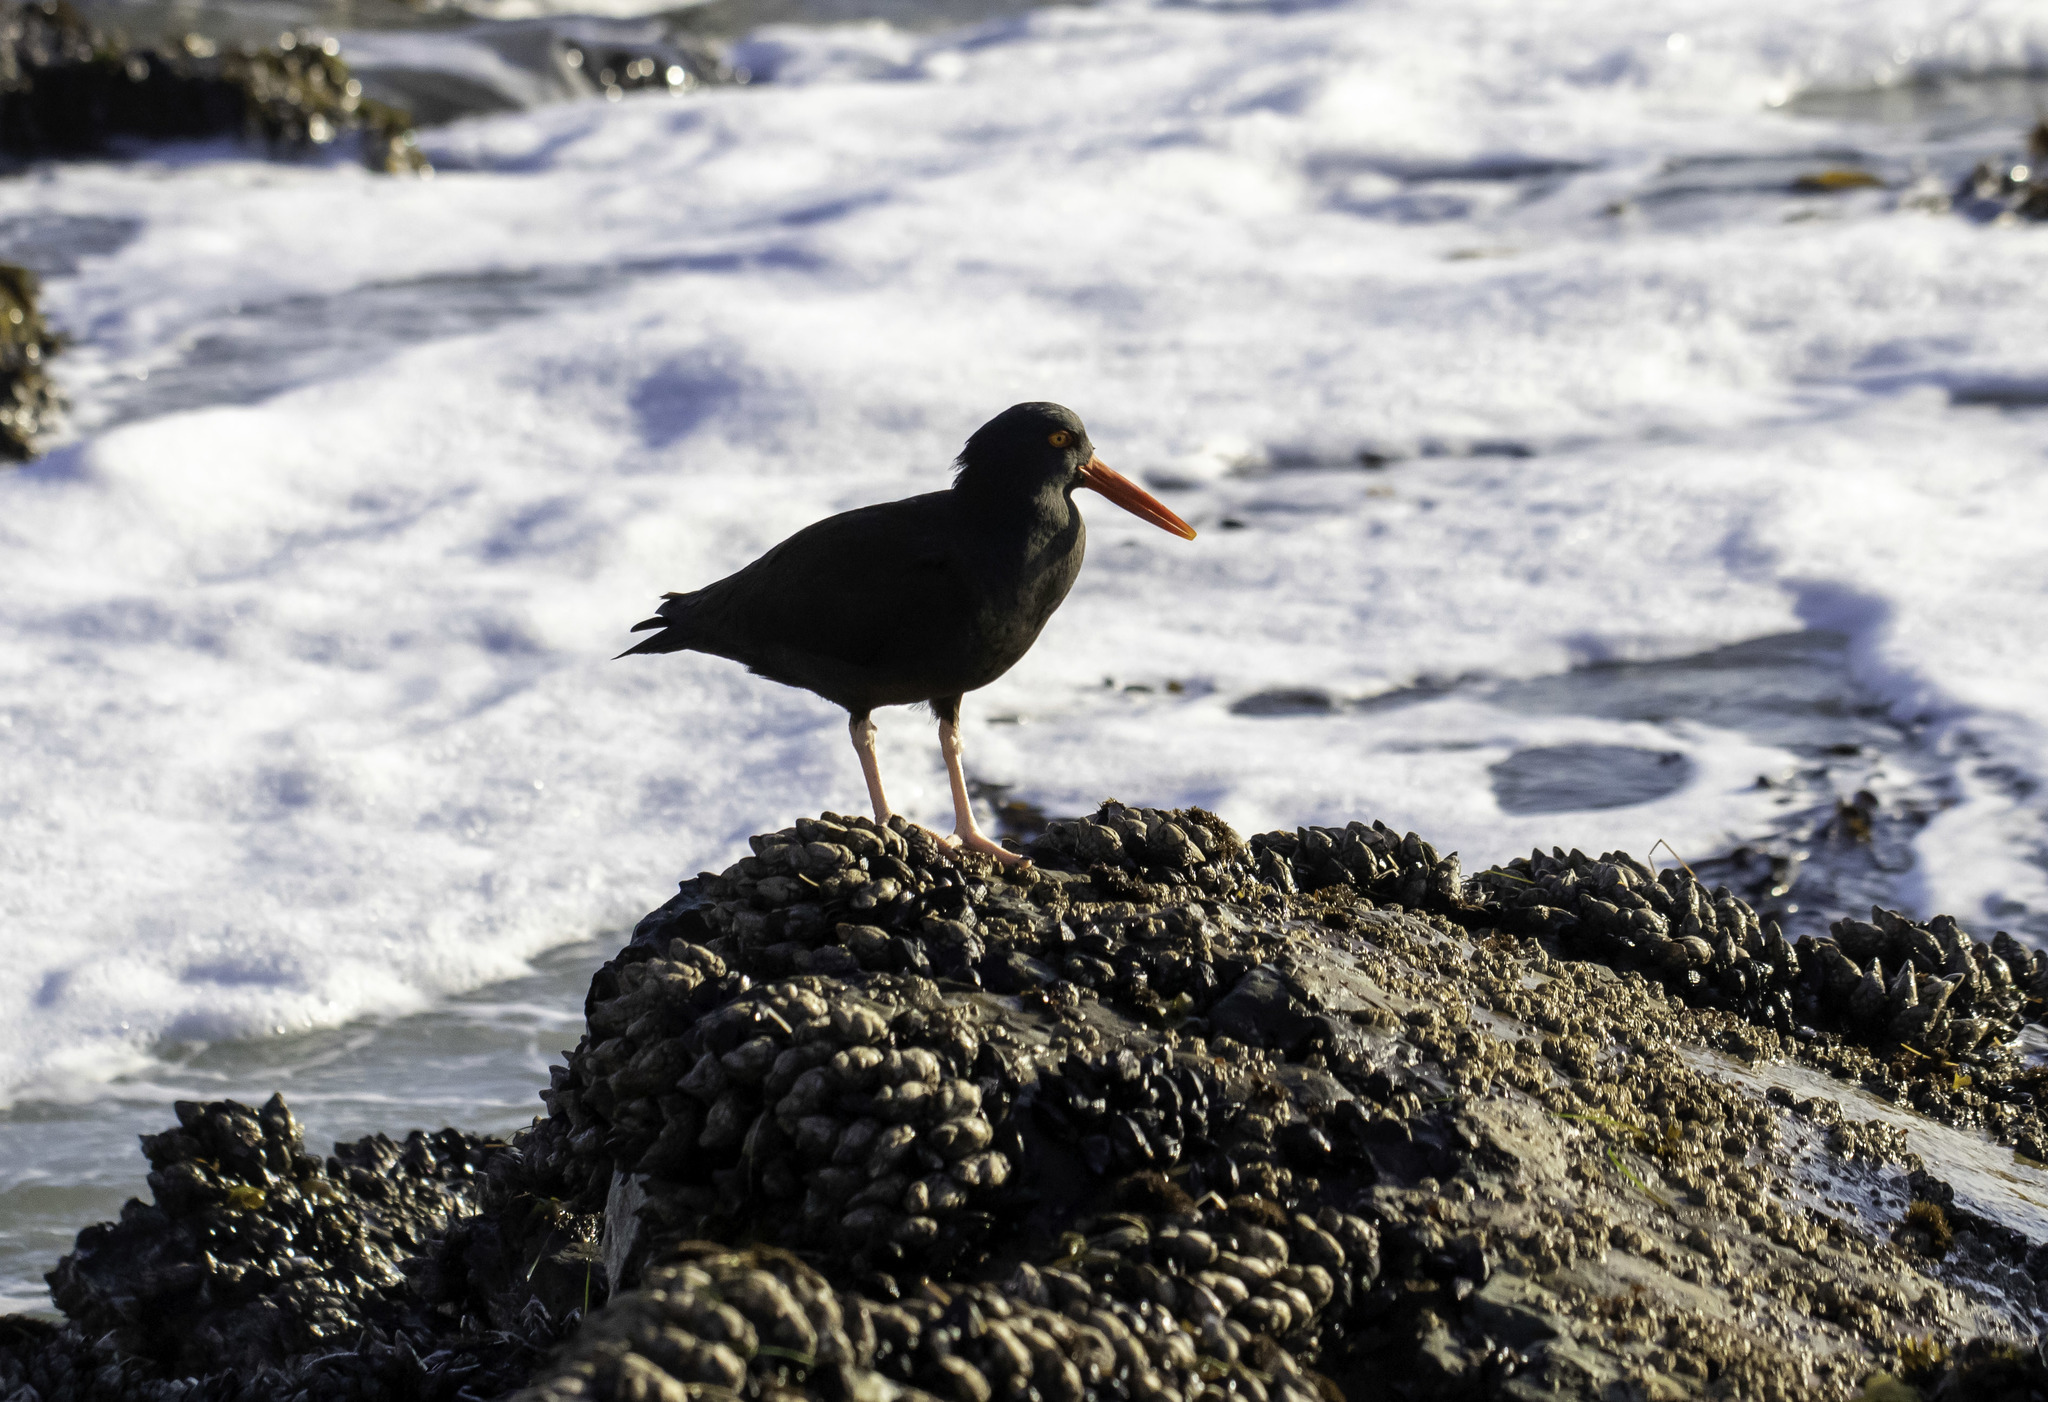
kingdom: Animalia
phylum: Chordata
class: Aves
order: Charadriiformes
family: Haematopodidae
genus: Haematopus
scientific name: Haematopus bachmani
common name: Black oystercatcher
